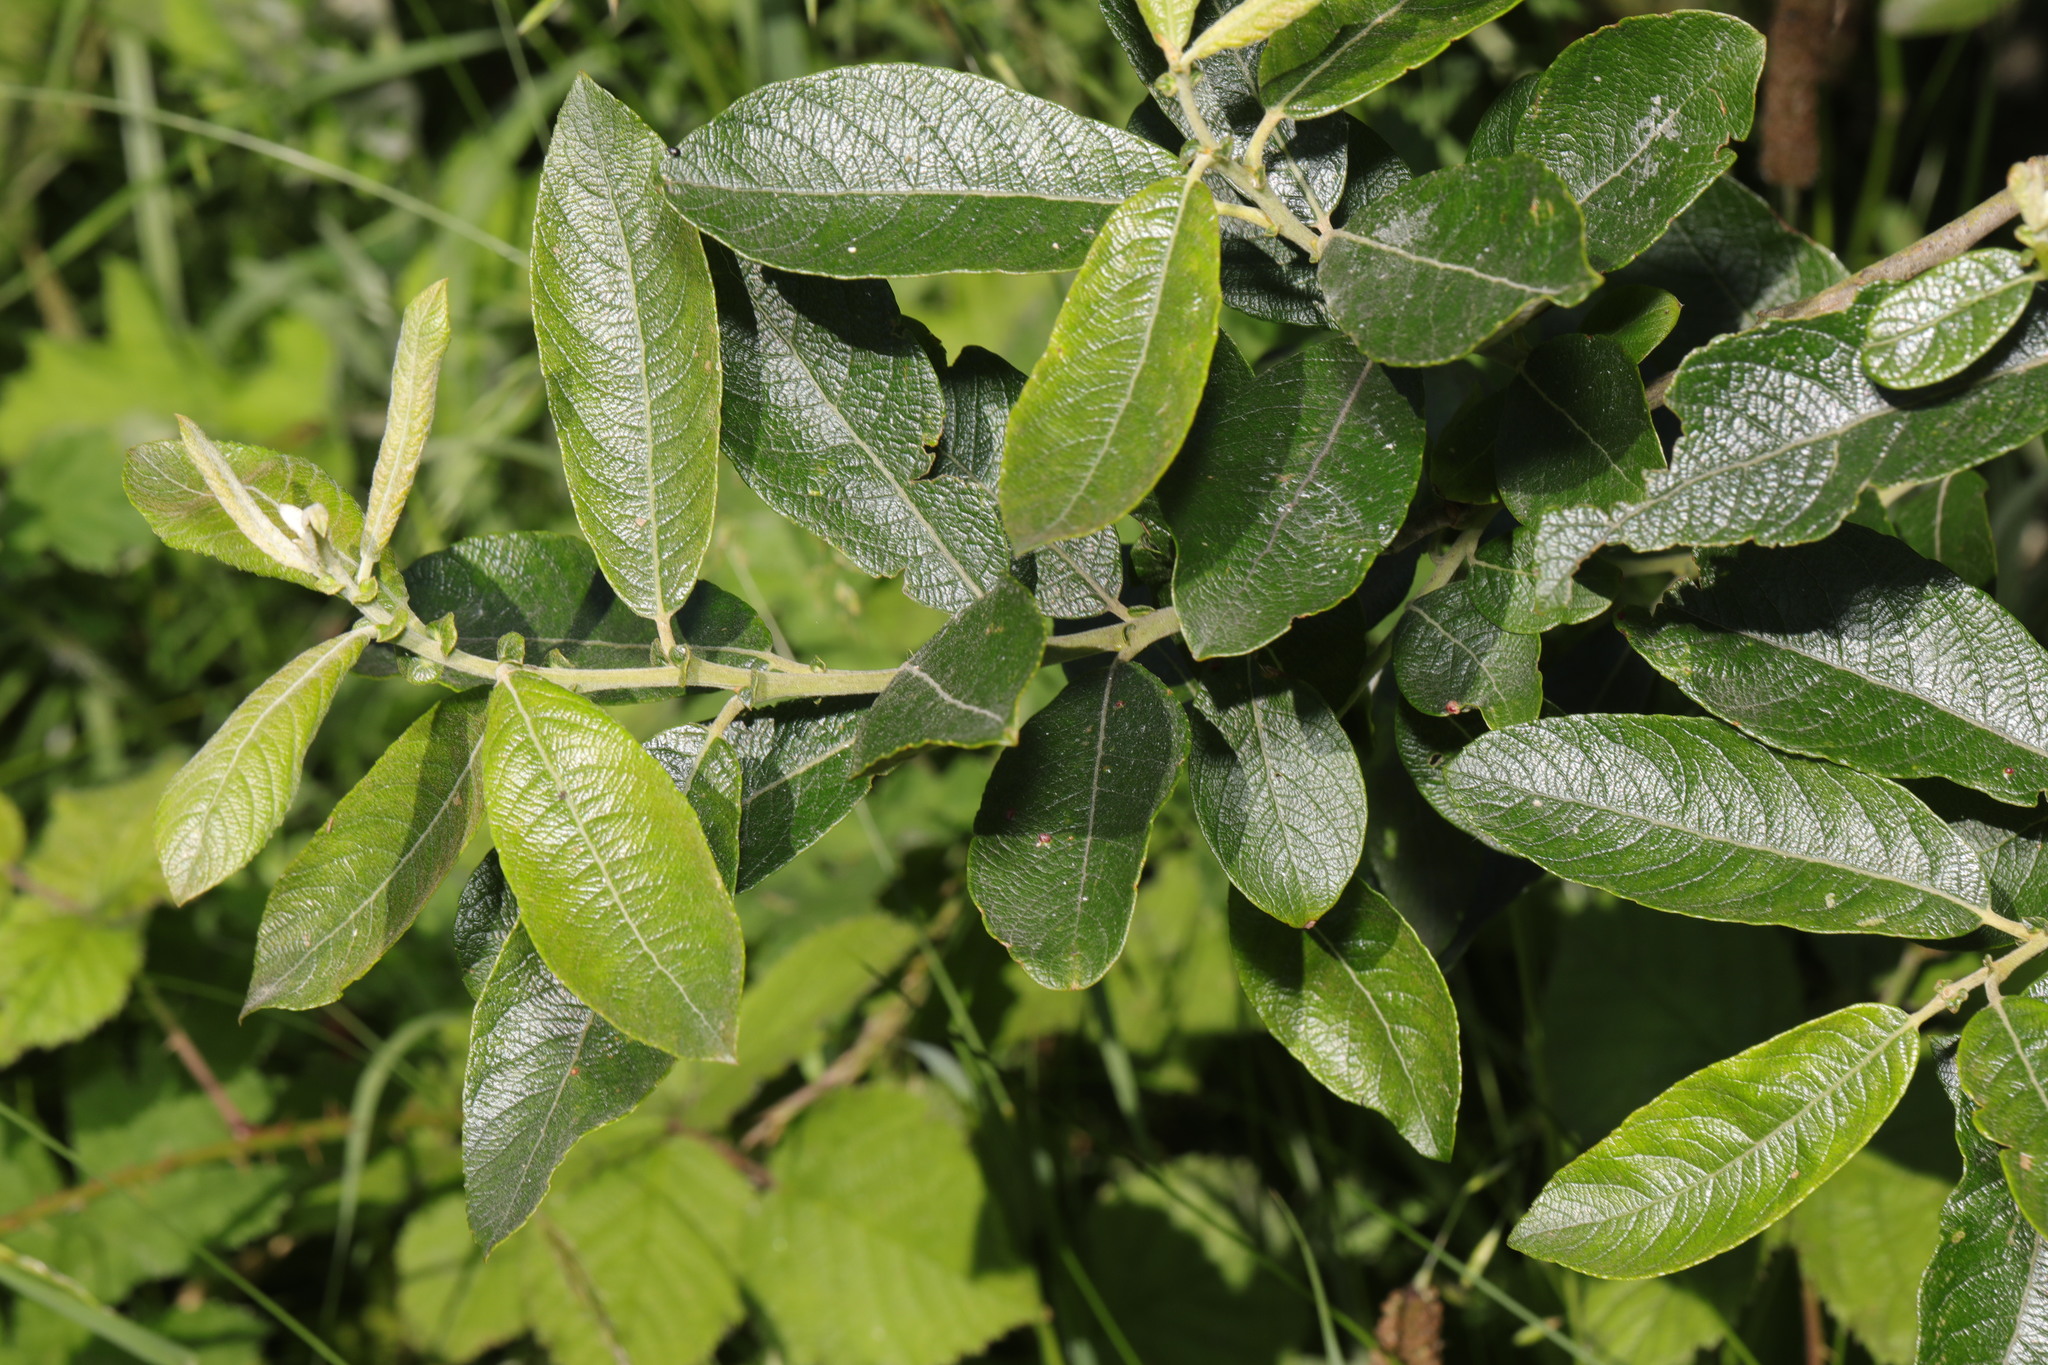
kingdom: Plantae
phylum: Tracheophyta
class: Magnoliopsida
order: Malpighiales
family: Salicaceae
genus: Salix
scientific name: Salix cinerea
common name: Common sallow
